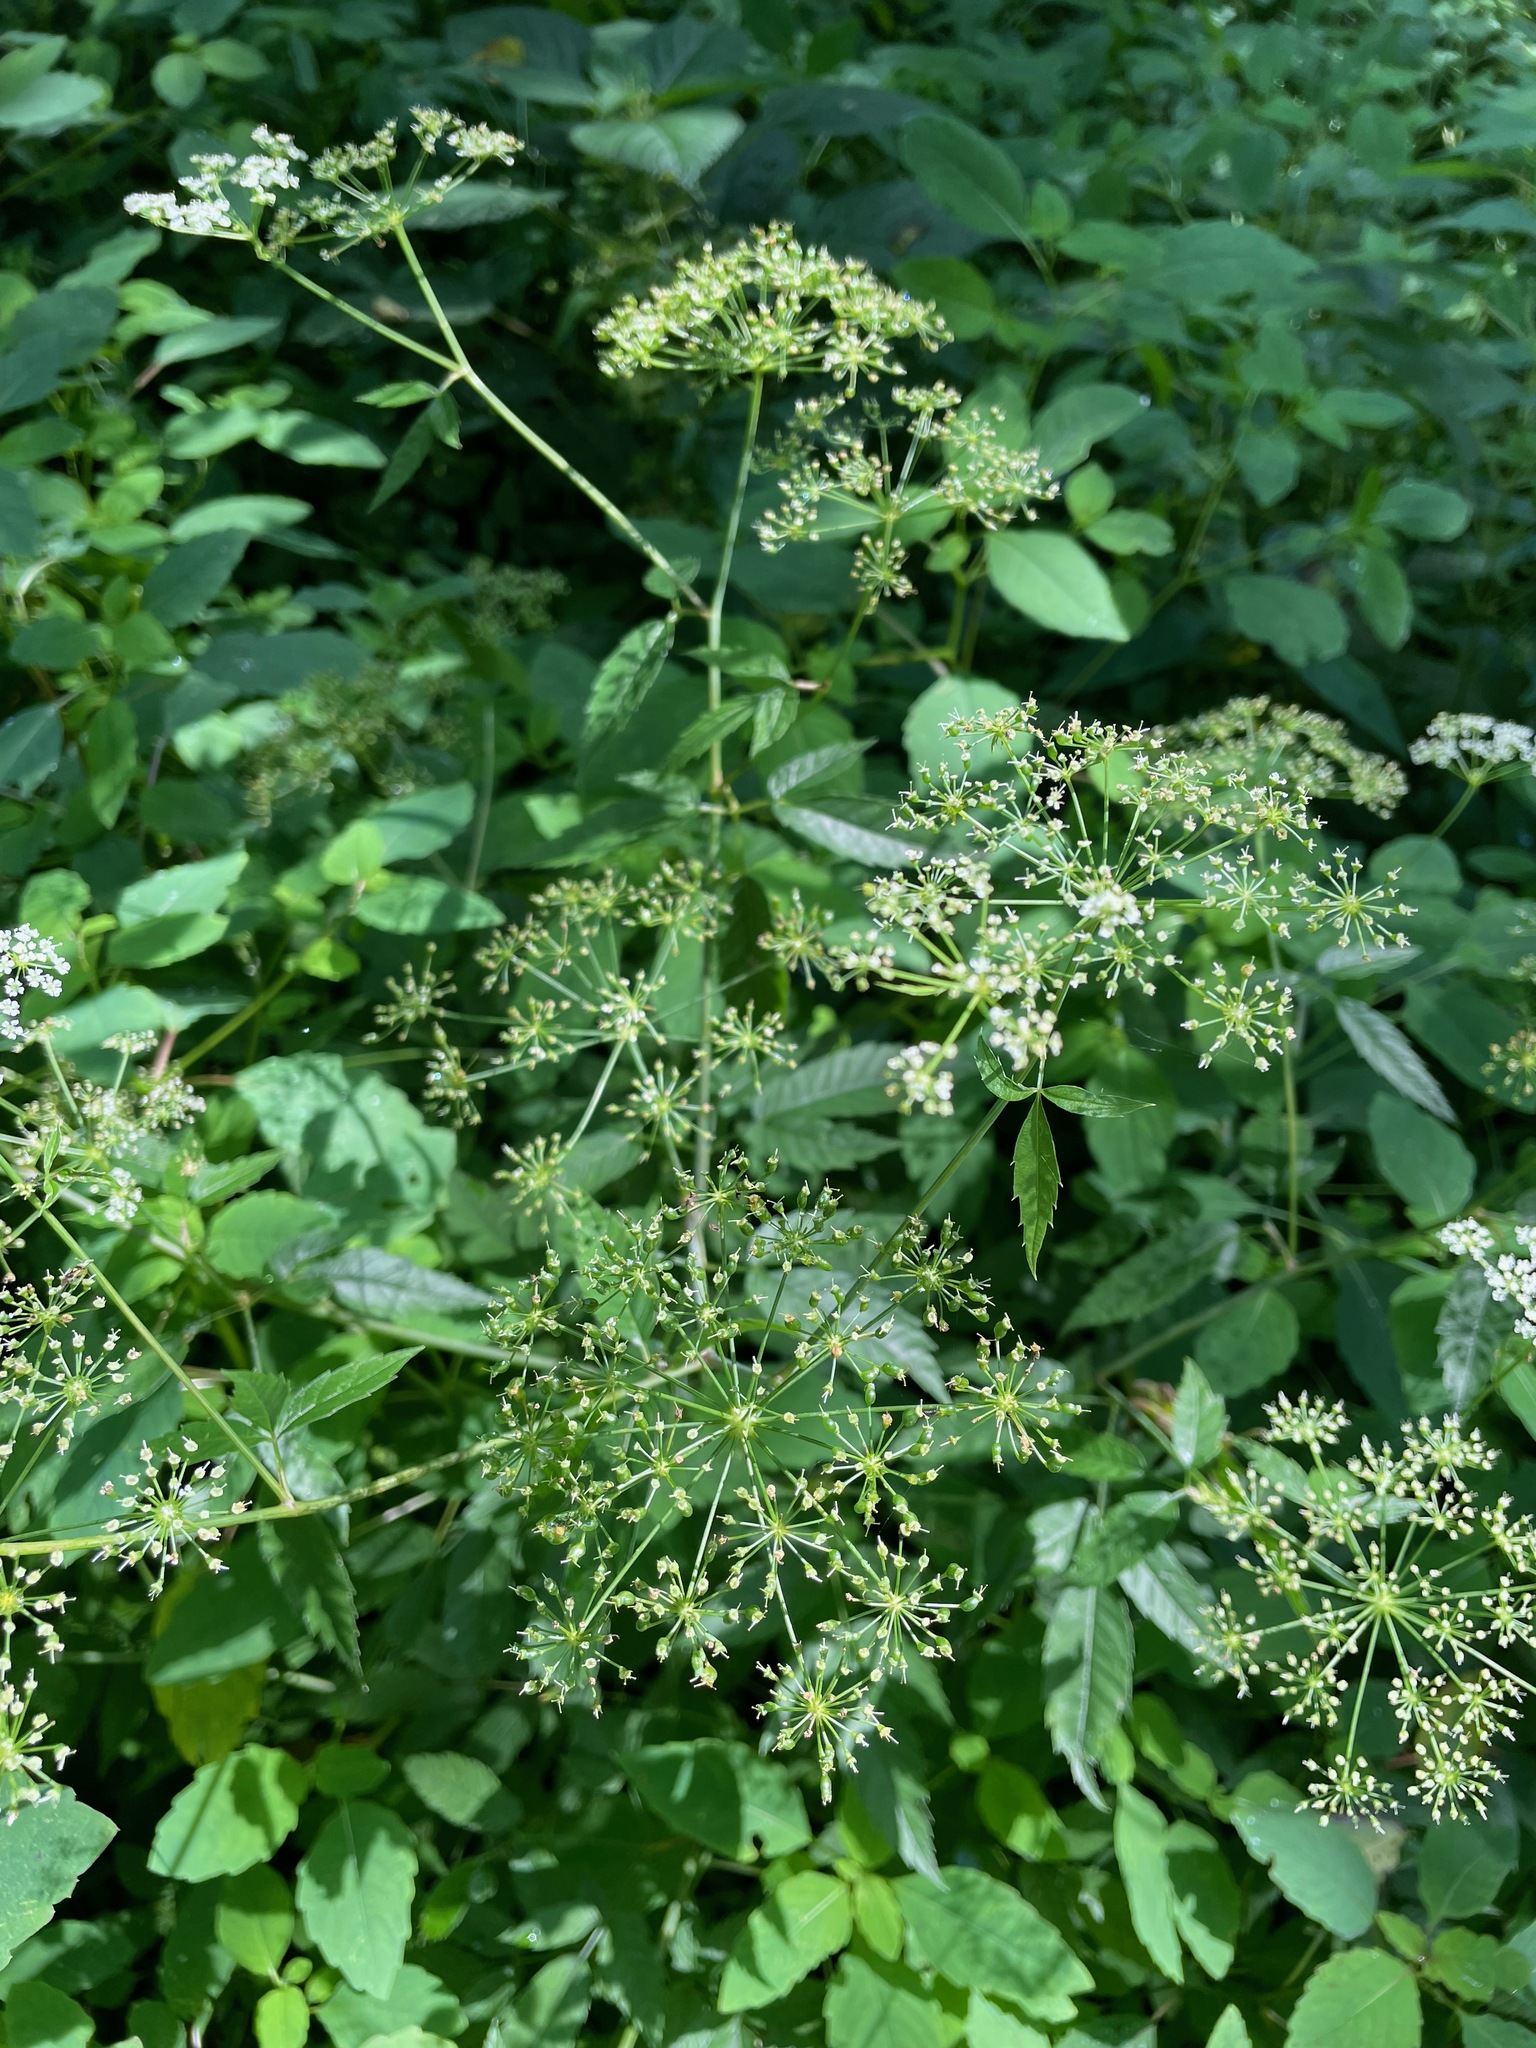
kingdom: Plantae
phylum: Tracheophyta
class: Magnoliopsida
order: Apiales
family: Apiaceae
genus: Cicuta
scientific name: Cicuta maculata
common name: Spotted cowbane
